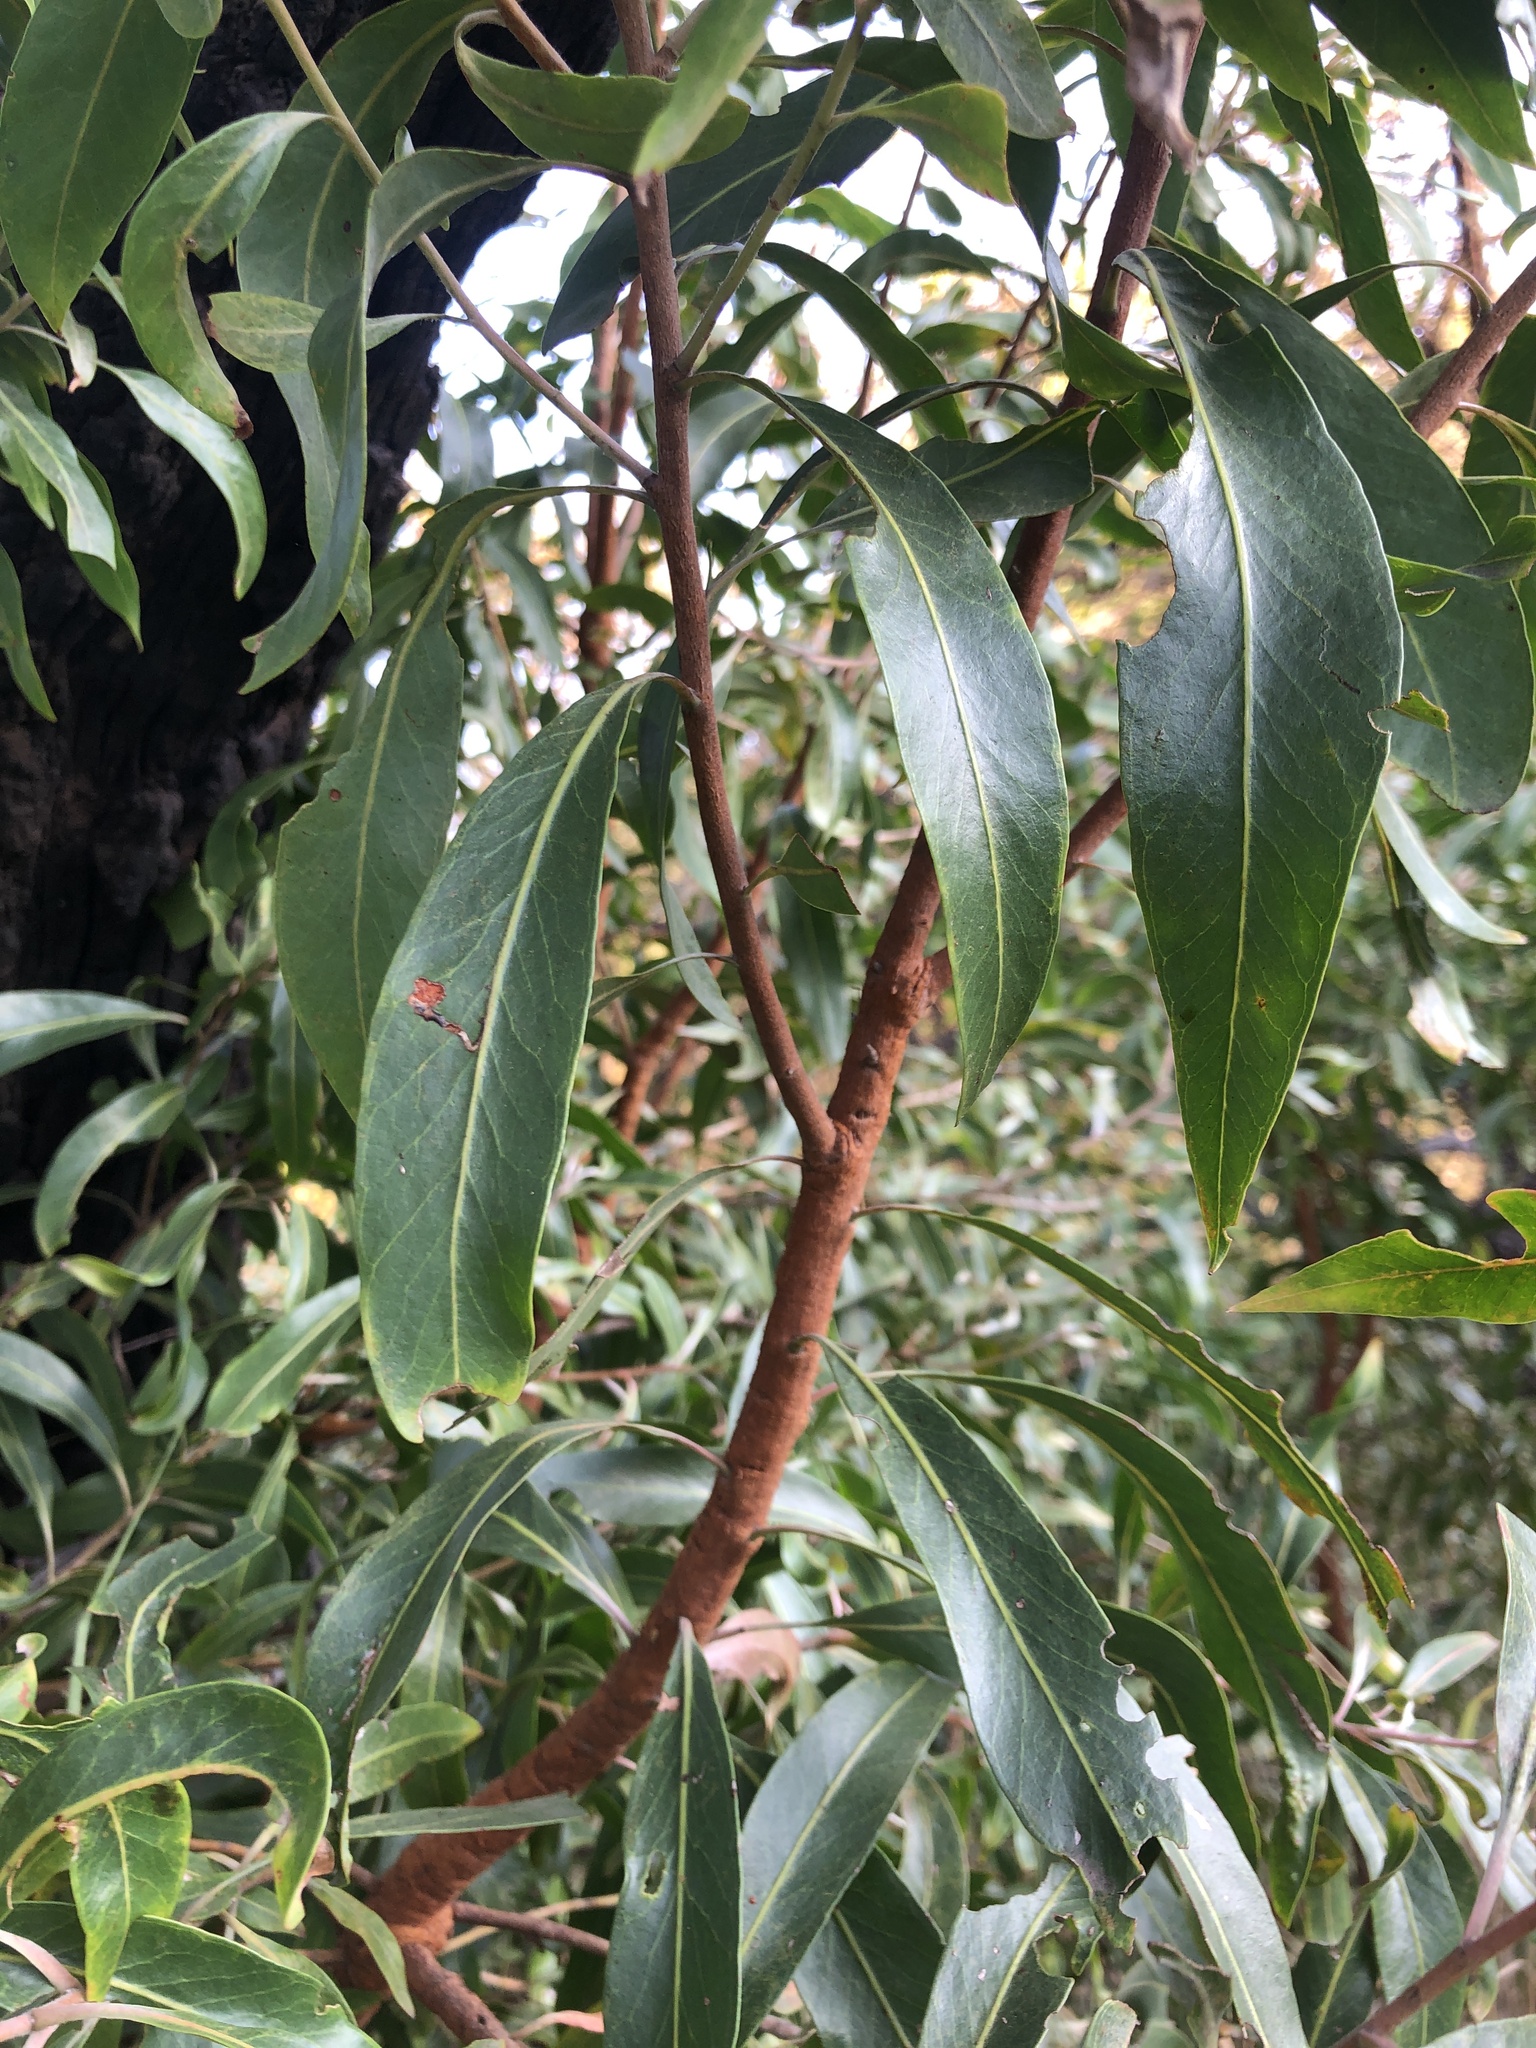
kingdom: Plantae
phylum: Tracheophyta
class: Magnoliopsida
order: Proteales
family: Proteaceae
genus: Faurea
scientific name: Faurea saligna
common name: African bean
